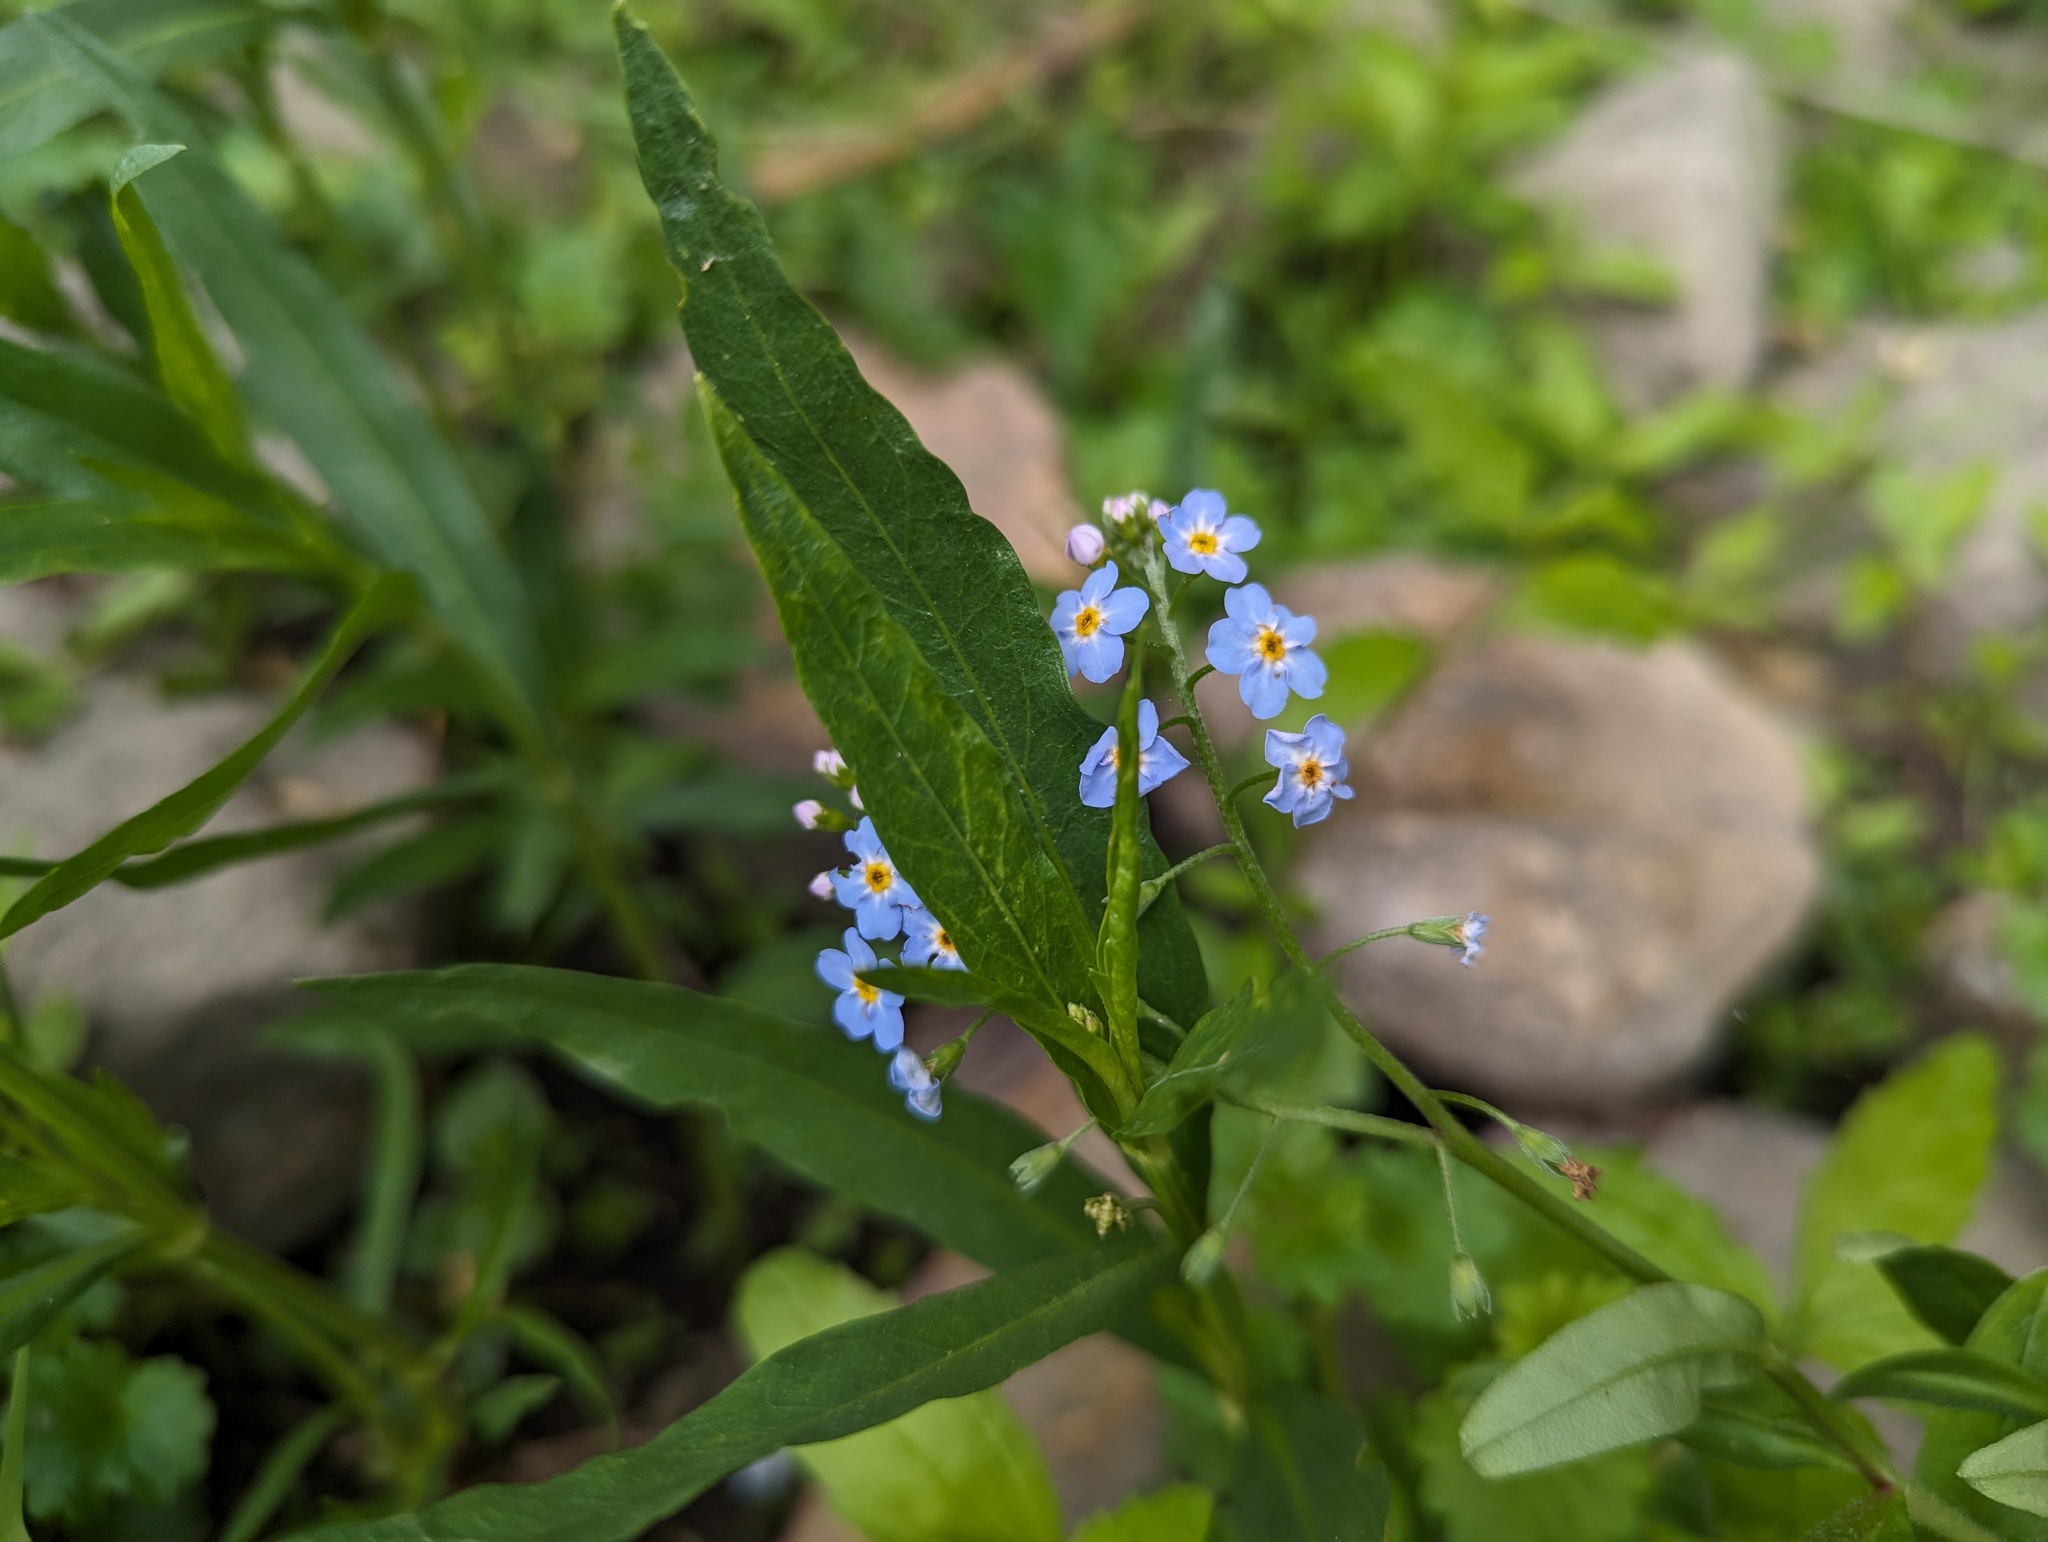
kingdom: Plantae
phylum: Tracheophyta
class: Magnoliopsida
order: Boraginales
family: Boraginaceae
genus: Myosotis
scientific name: Myosotis scorpioides
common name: Water forget-me-not
